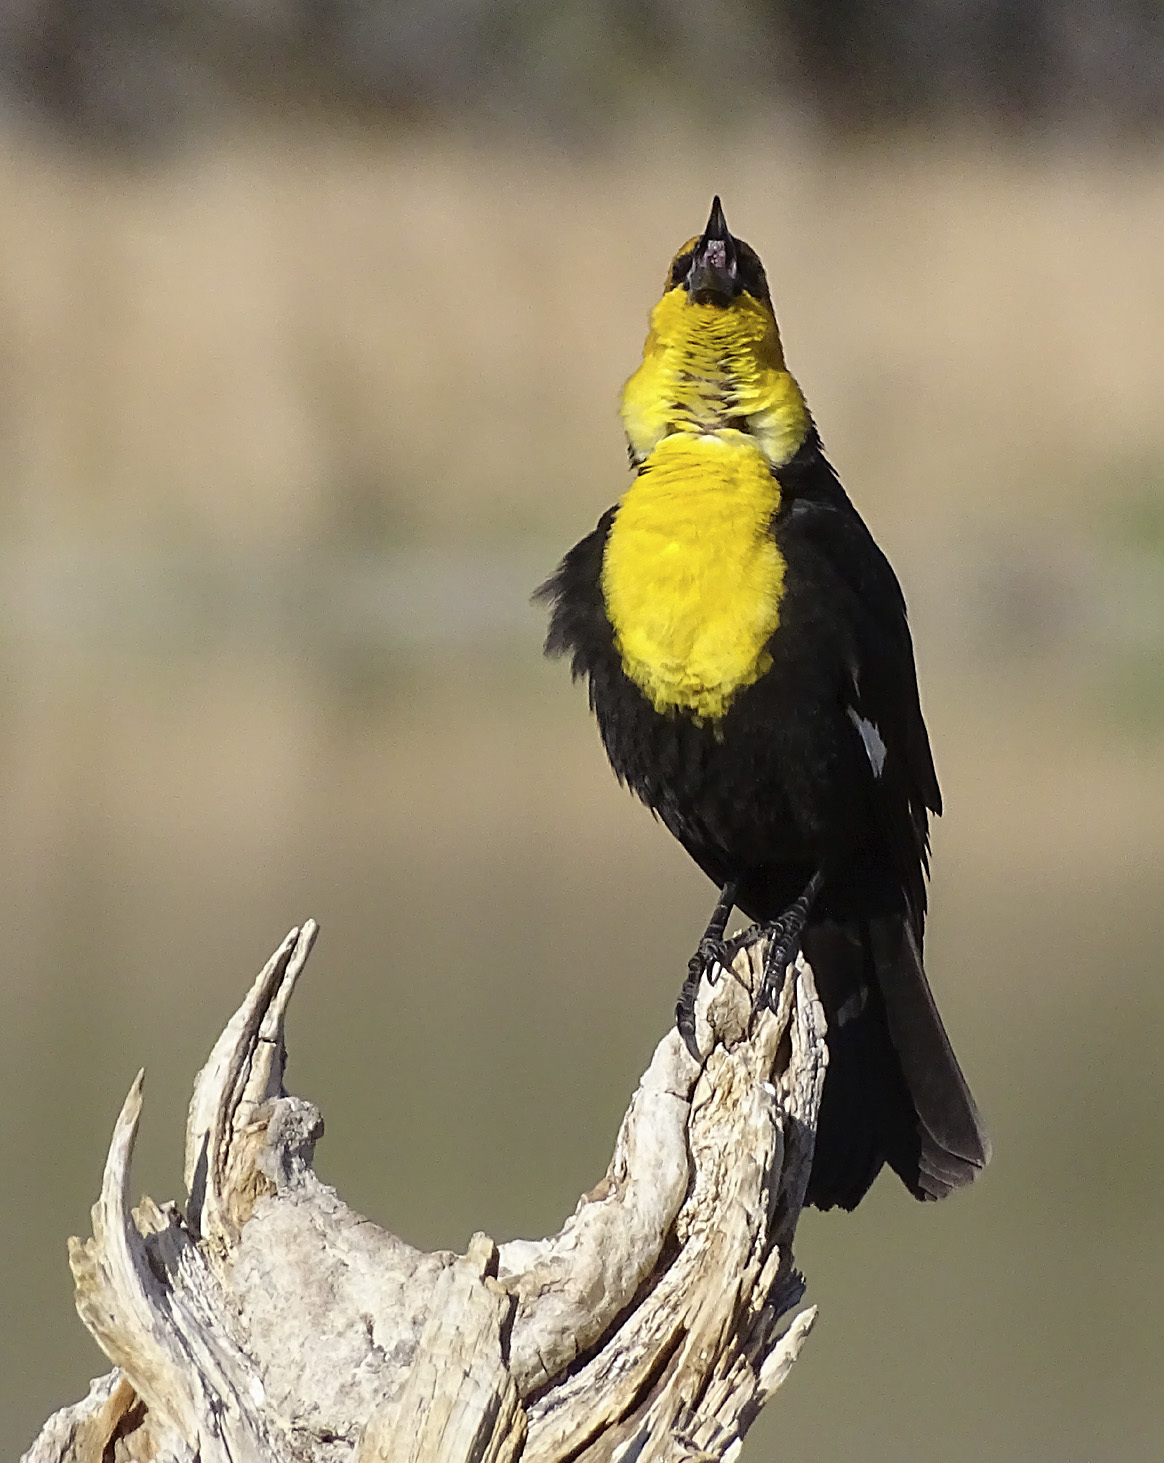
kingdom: Animalia
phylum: Chordata
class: Aves
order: Passeriformes
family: Icteridae
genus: Xanthocephalus
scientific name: Xanthocephalus xanthocephalus
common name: Yellow-headed blackbird
